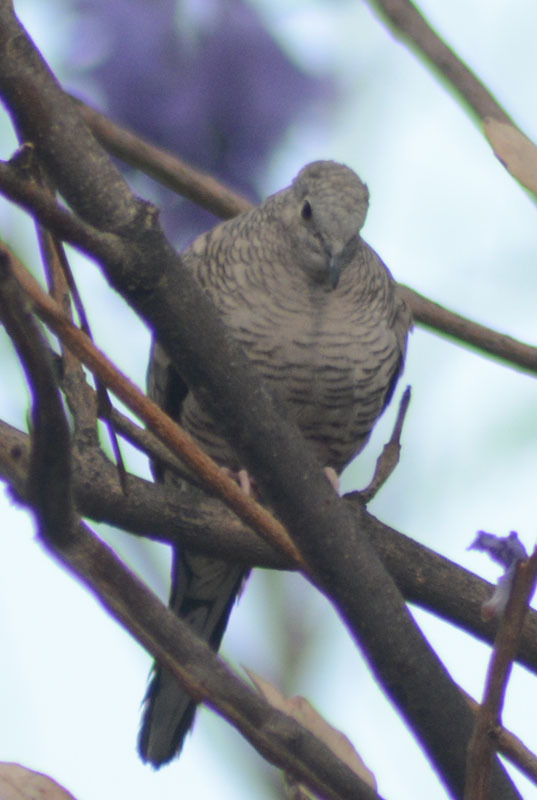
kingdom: Animalia
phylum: Chordata
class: Aves
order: Columbiformes
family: Columbidae
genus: Columbina
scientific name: Columbina inca
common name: Inca dove
